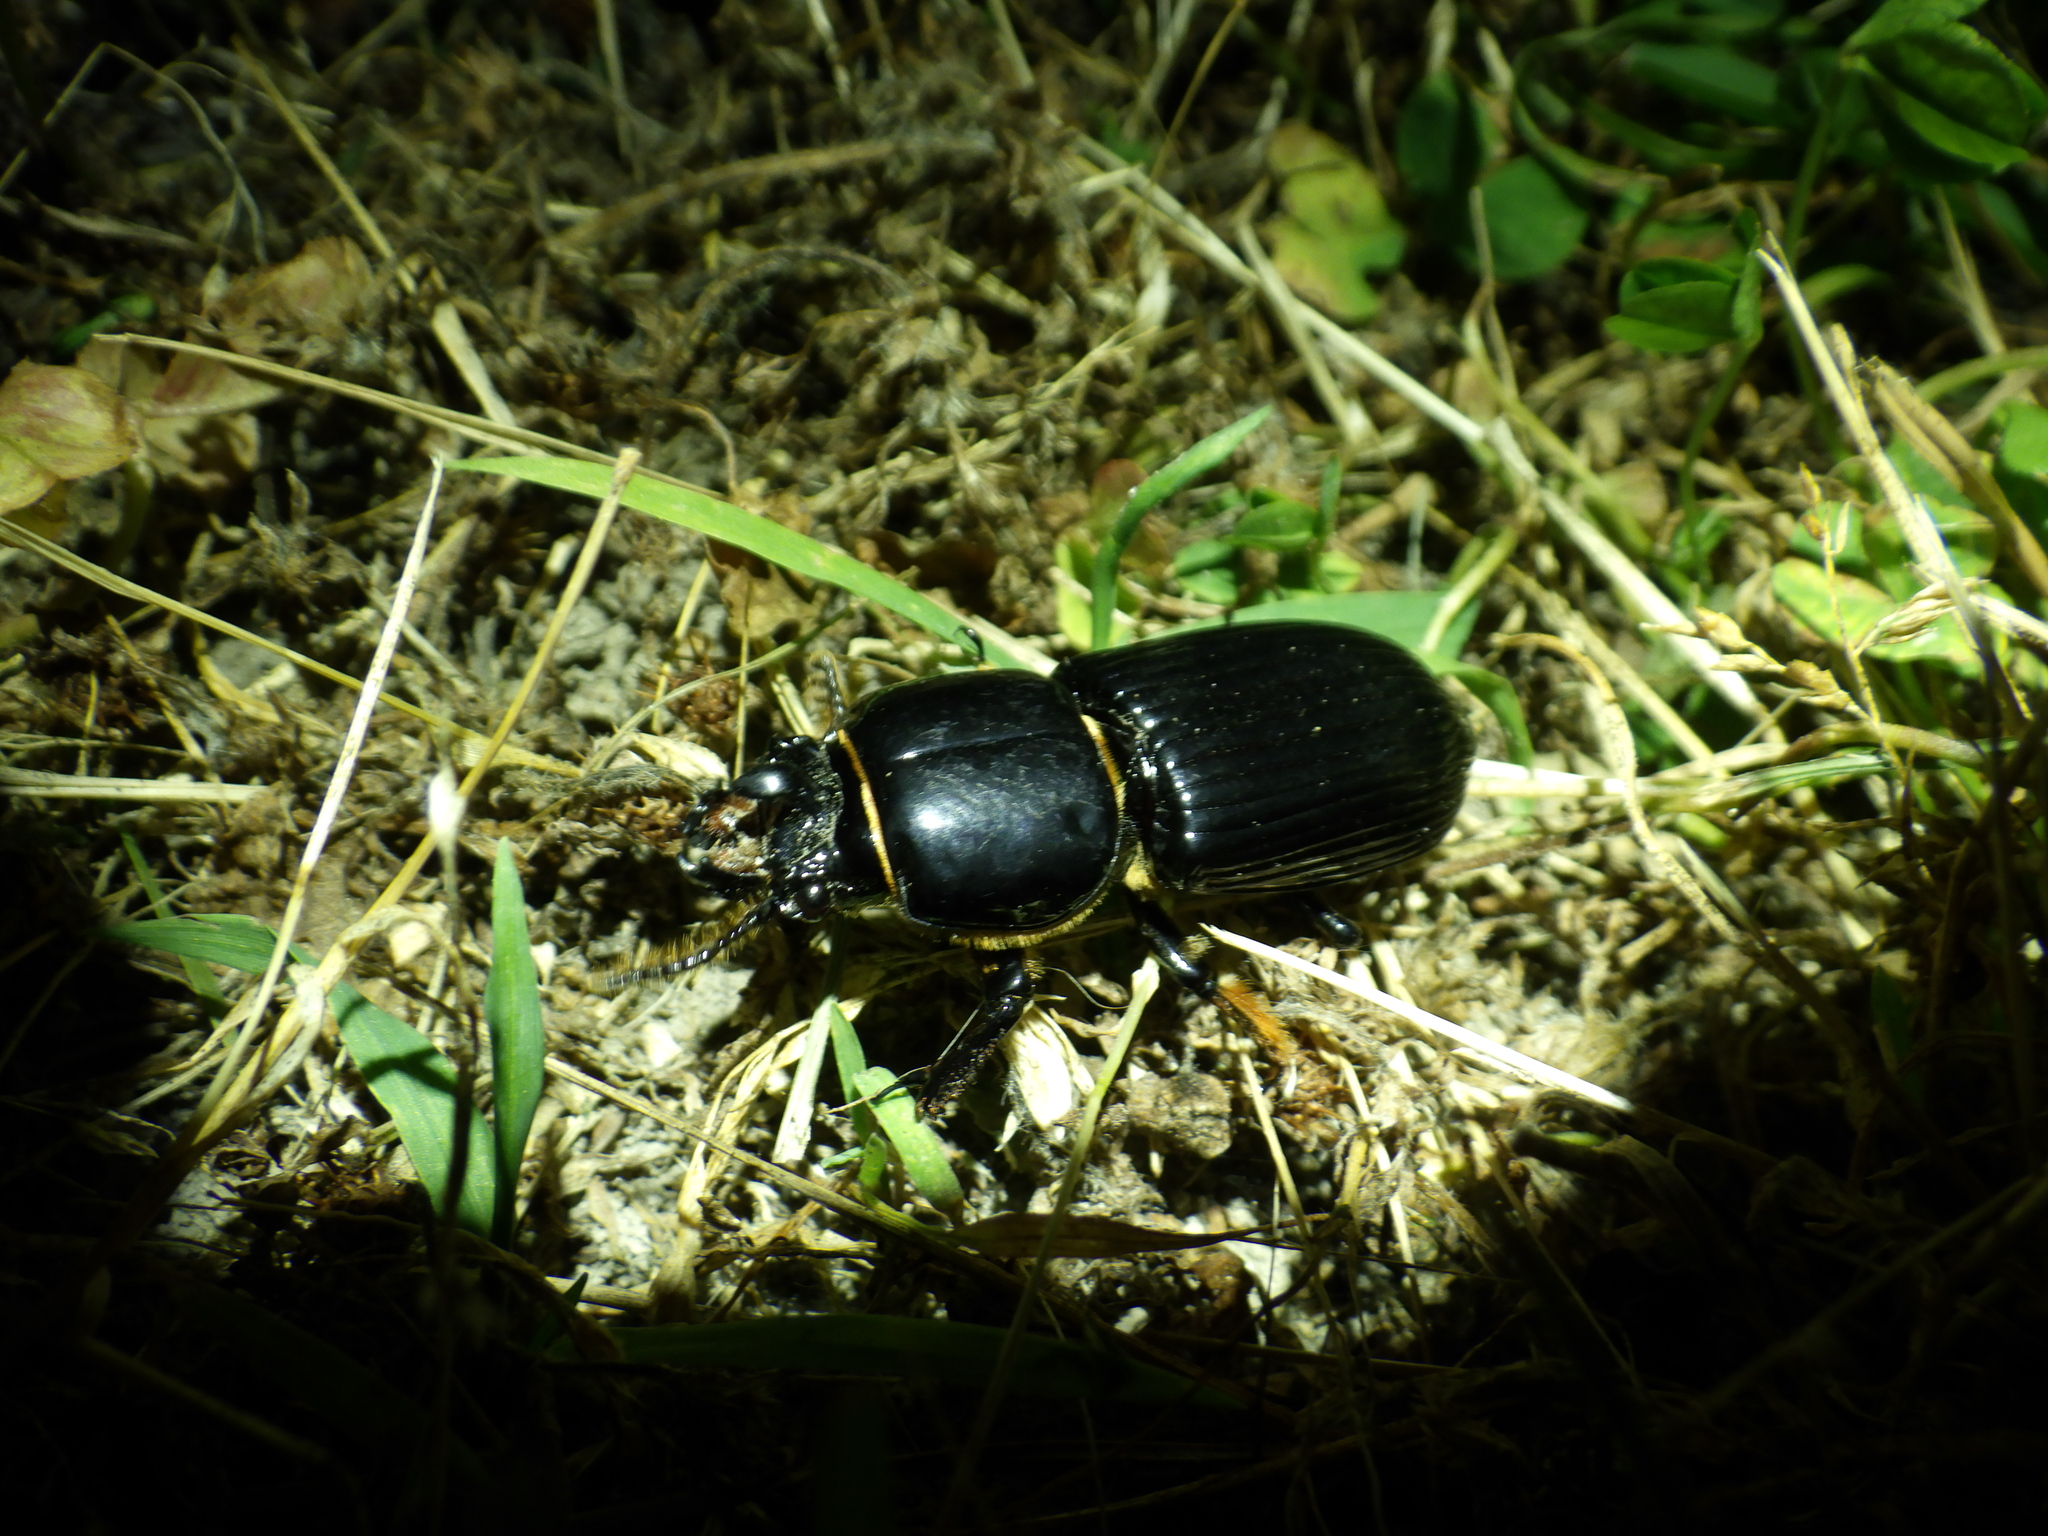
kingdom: Animalia
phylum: Arthropoda
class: Insecta
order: Coleoptera
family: Passalidae
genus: Odontotaenius
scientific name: Odontotaenius disjunctus
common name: Patent leather beetle
